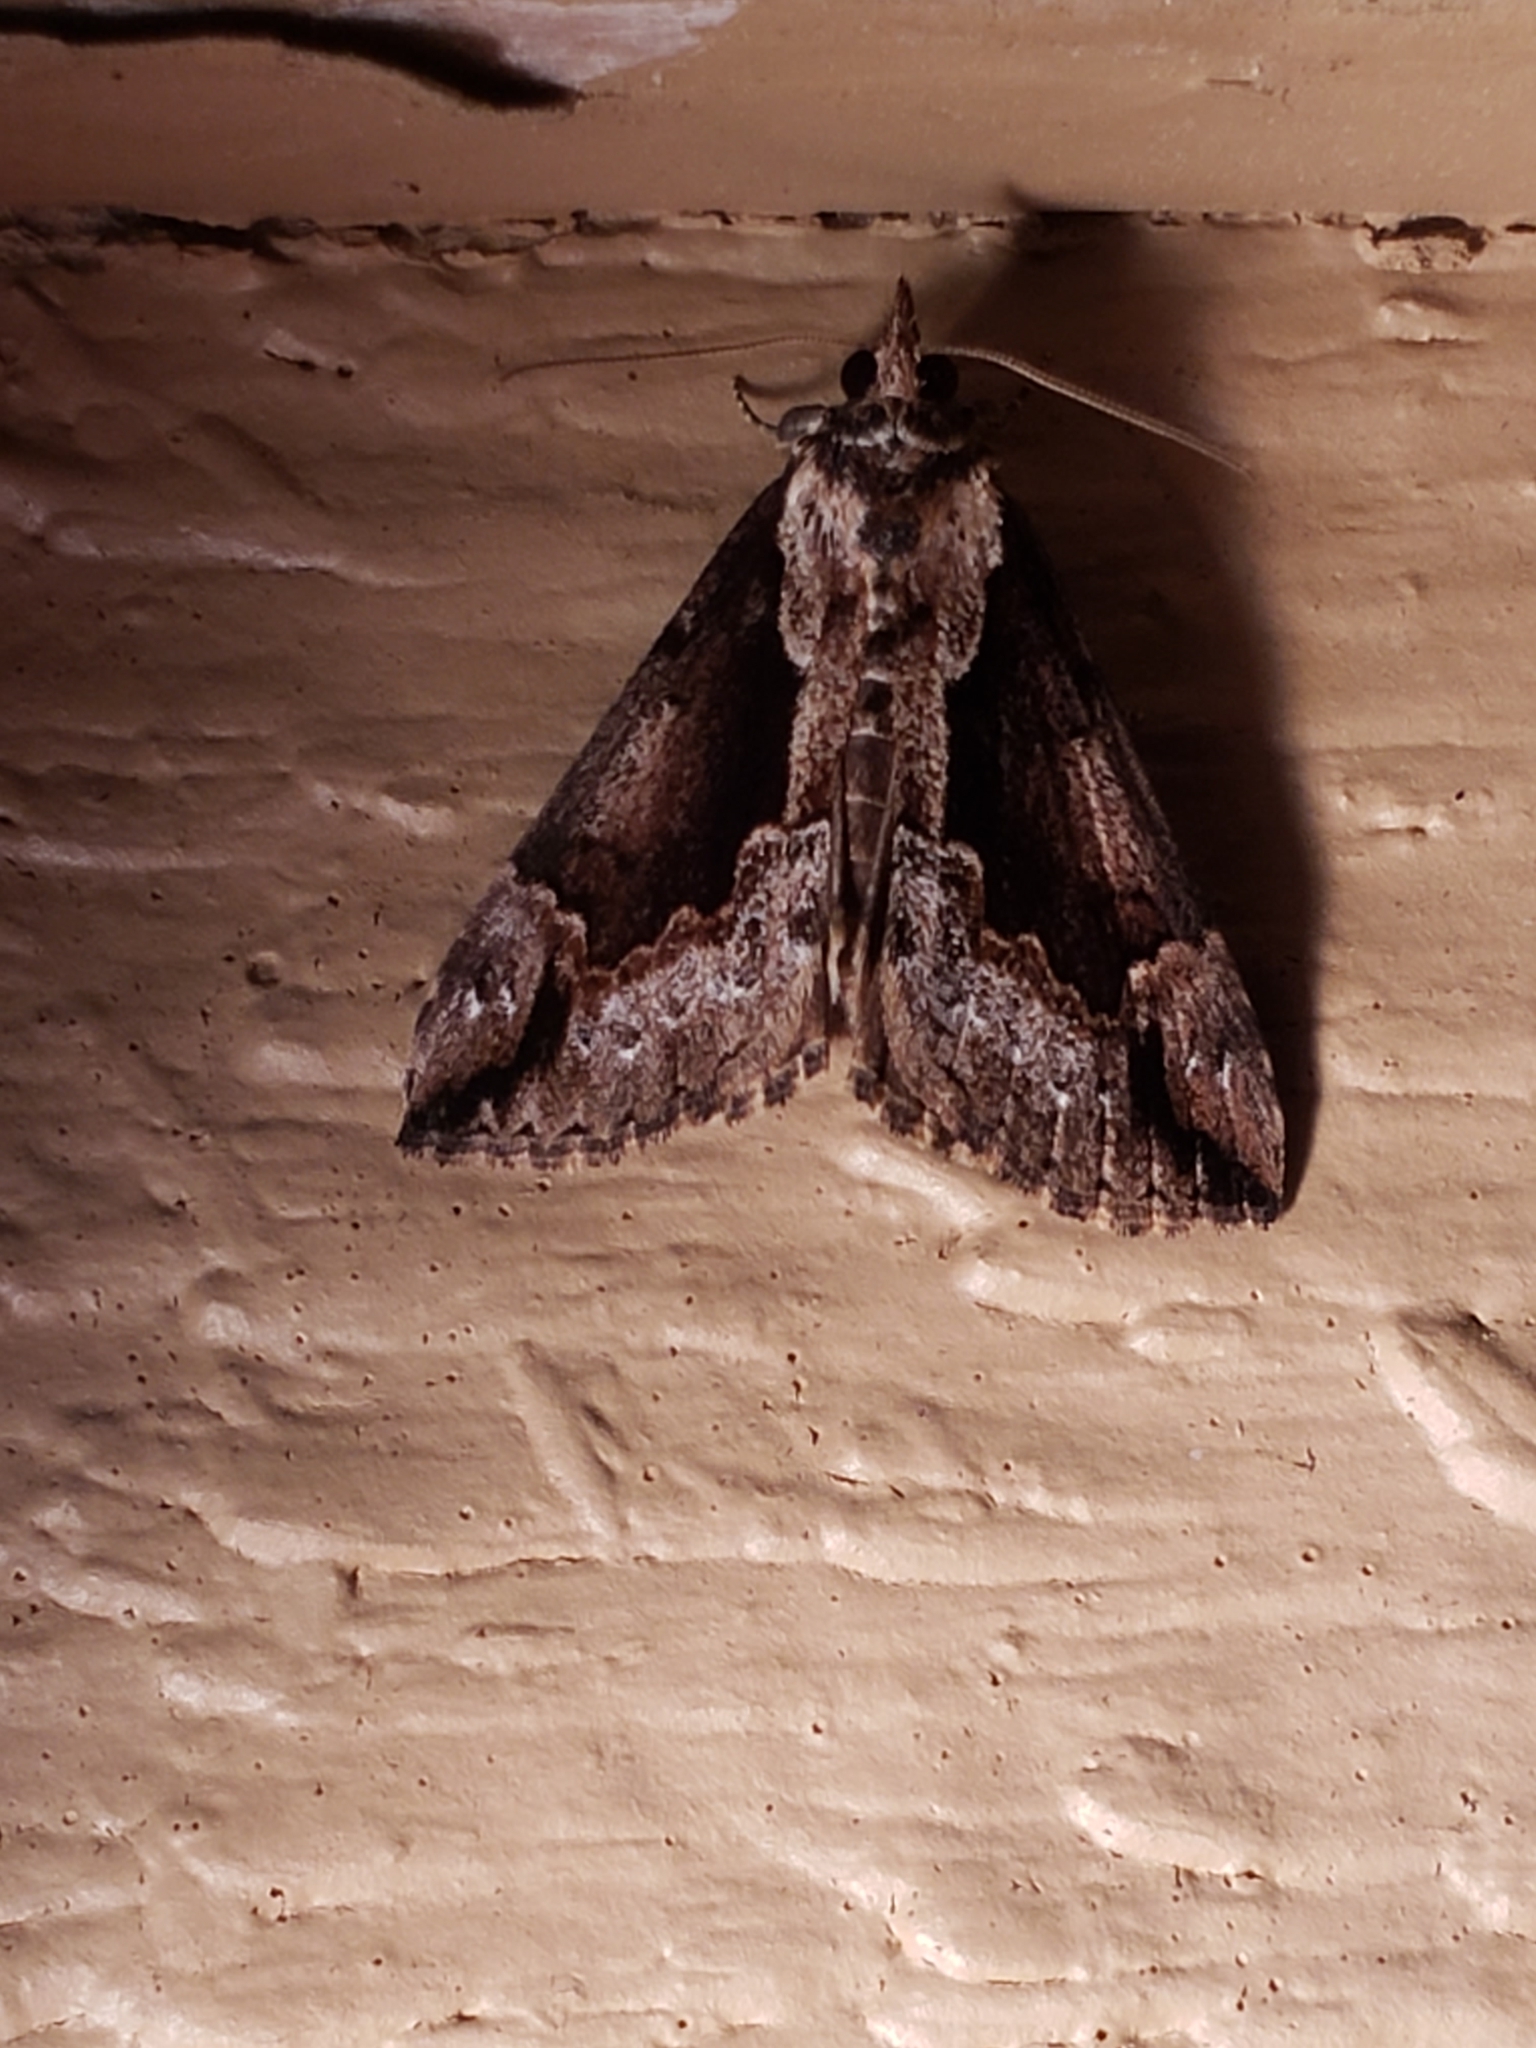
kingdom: Animalia
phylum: Arthropoda
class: Insecta
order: Lepidoptera
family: Erebidae
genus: Hypena
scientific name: Hypena baltimoralis
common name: Baltimore snout
